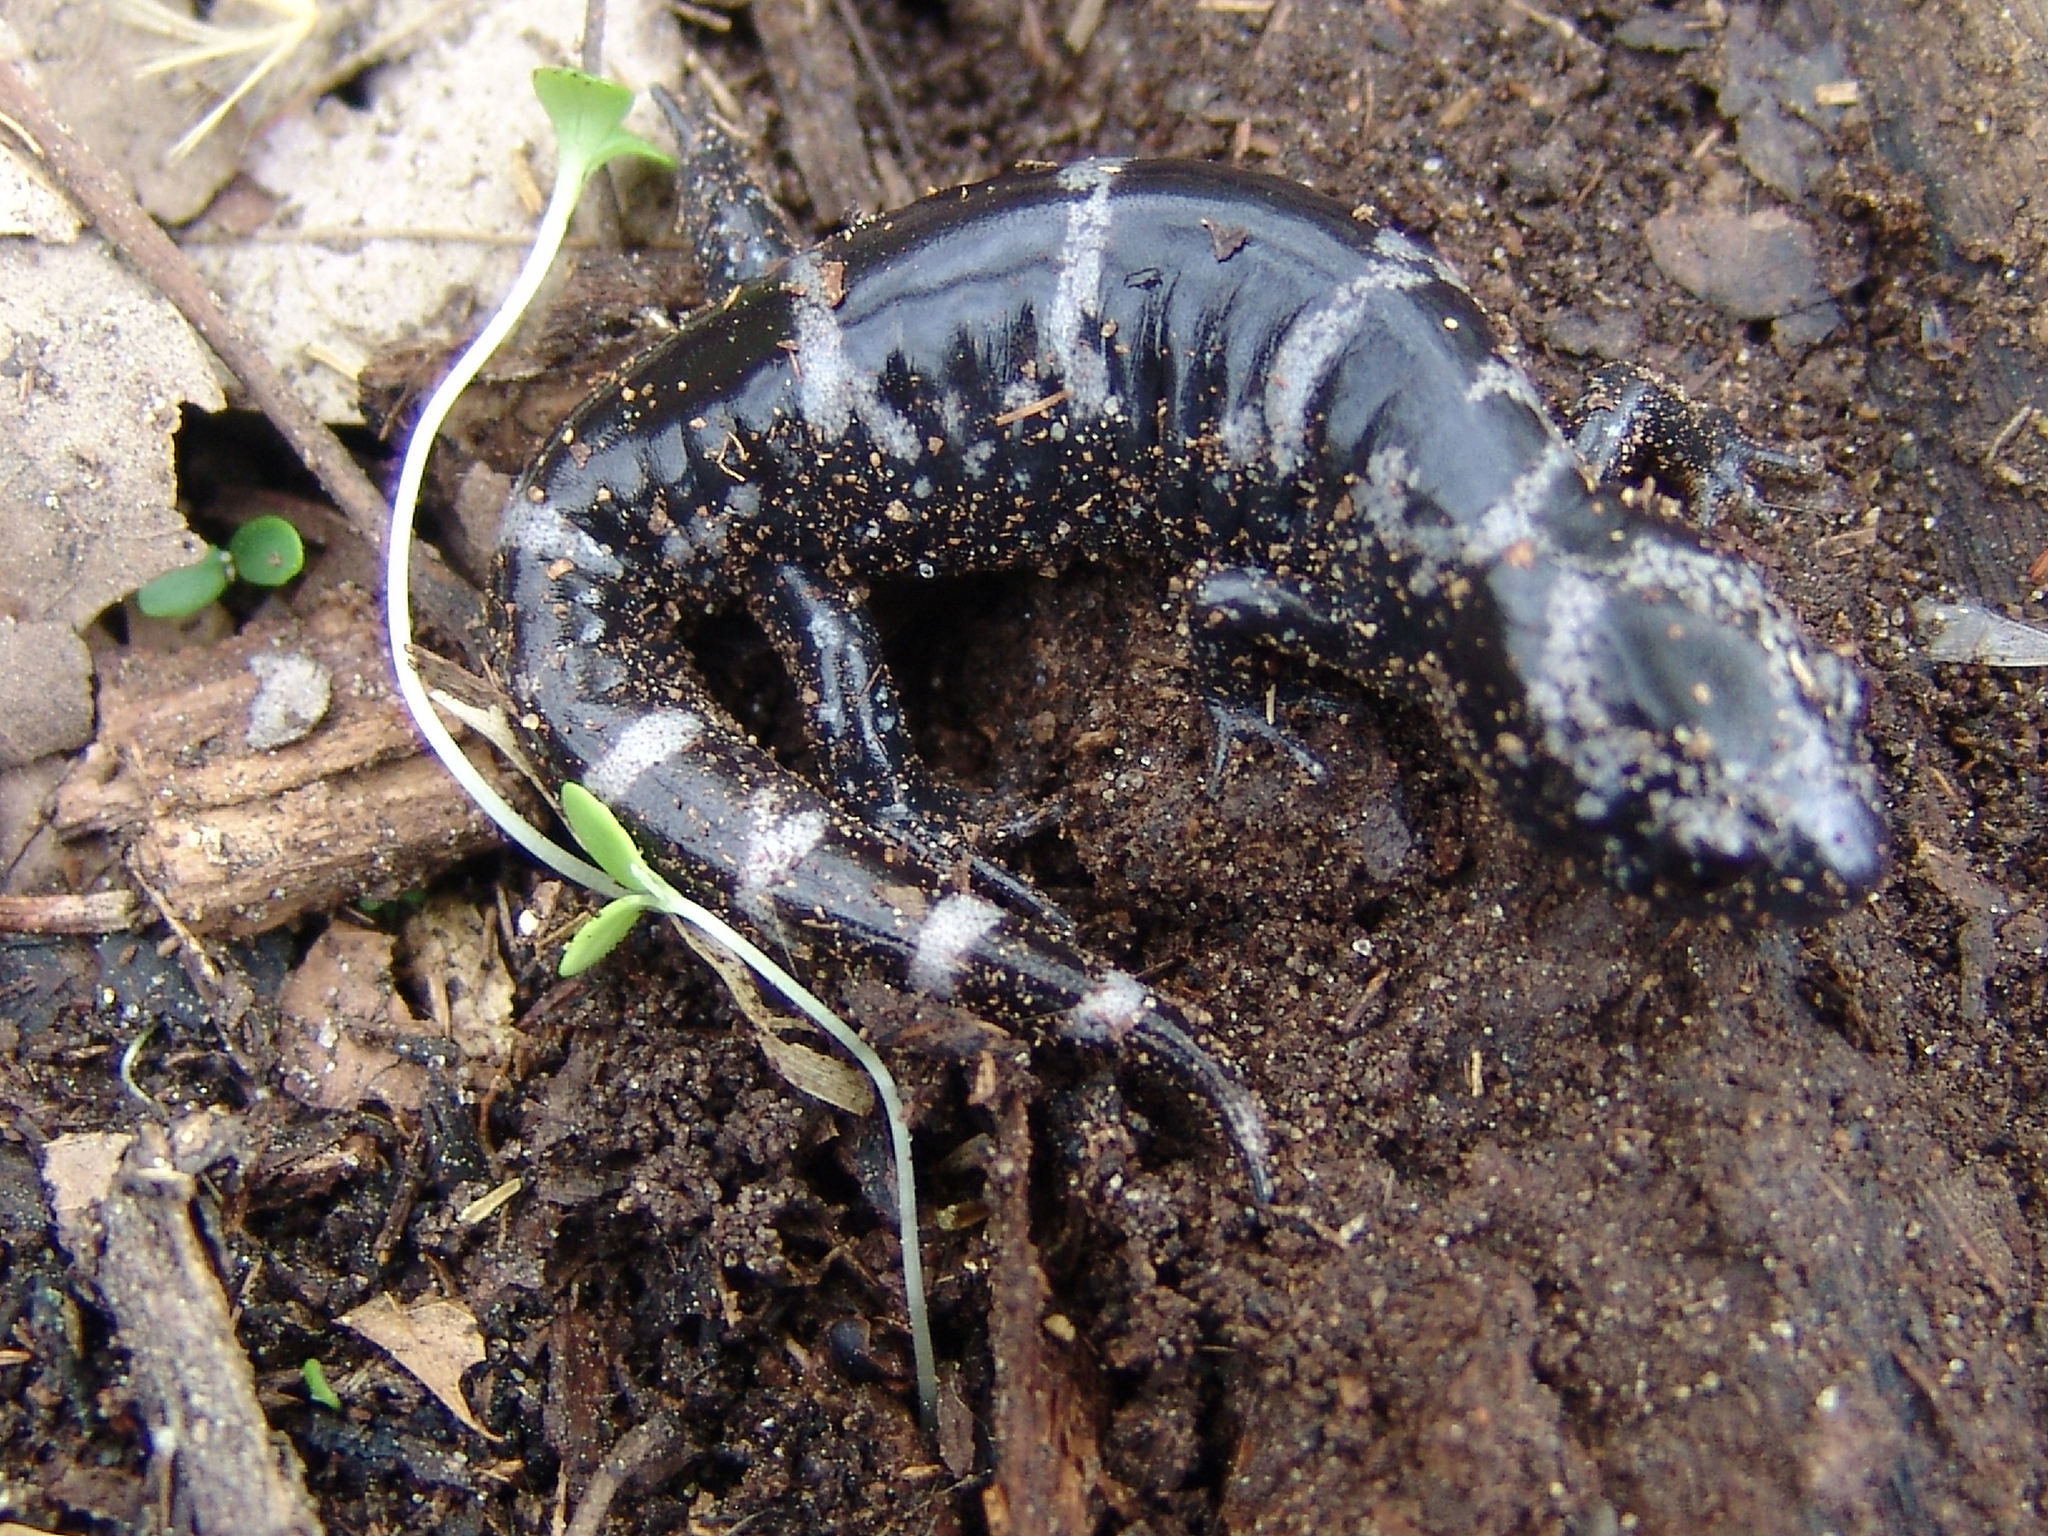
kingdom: Animalia
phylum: Chordata
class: Amphibia
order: Caudata
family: Ambystomatidae
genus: Ambystoma
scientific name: Ambystoma opacum
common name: Marbled salamander
